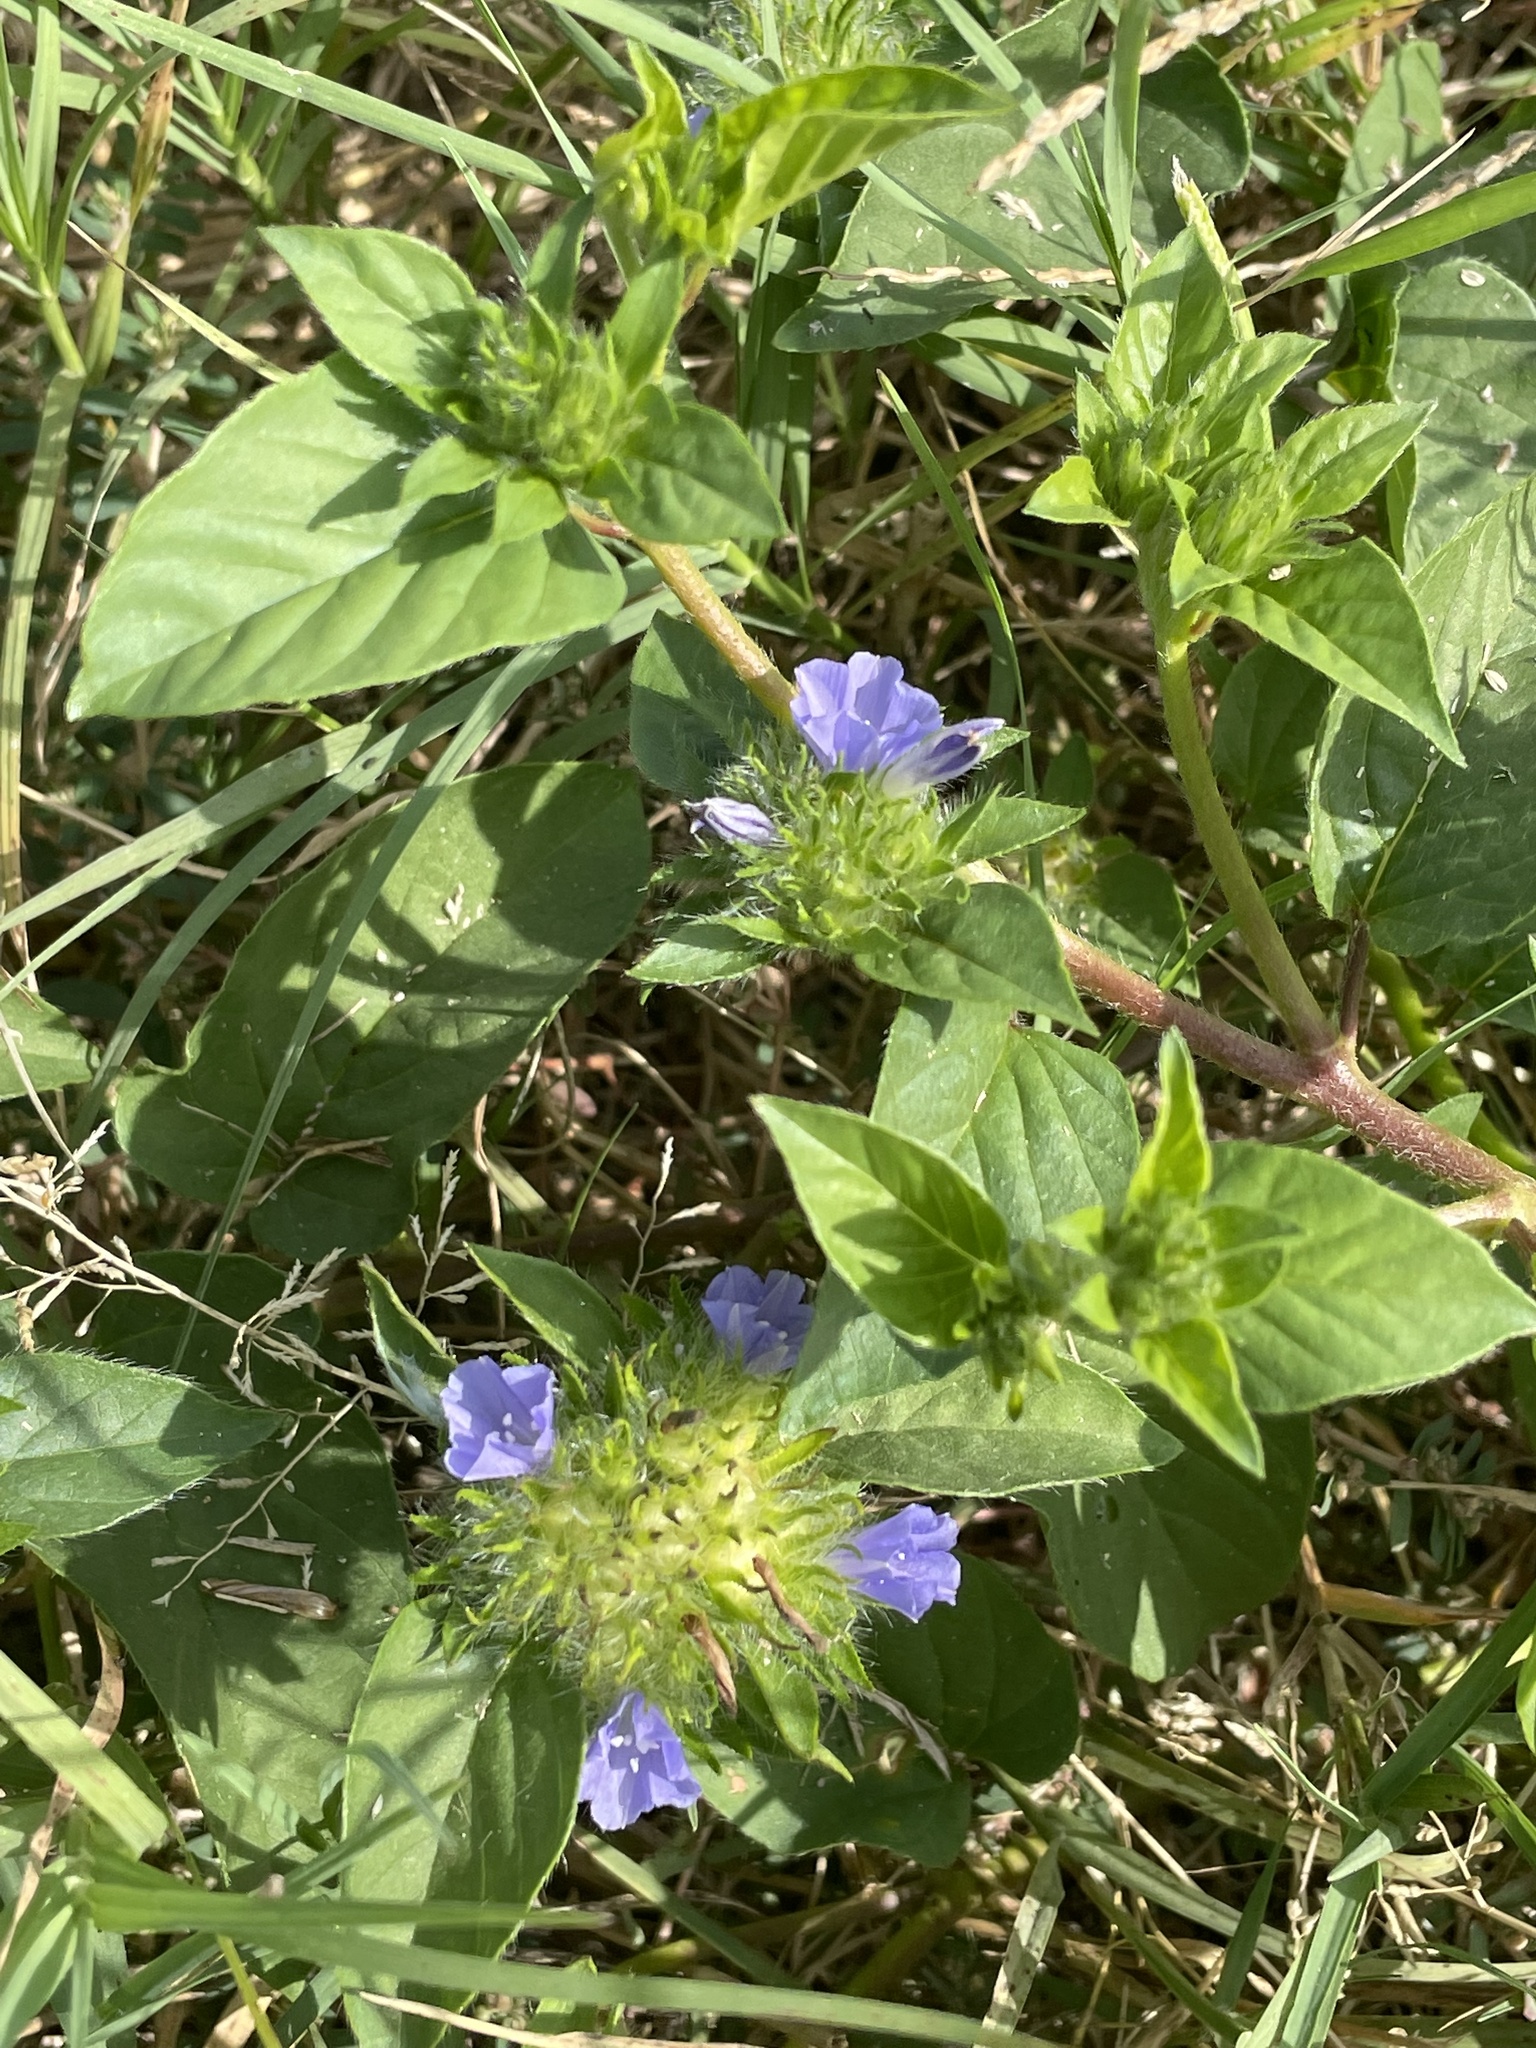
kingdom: Animalia
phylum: Arthropoda
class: Insecta
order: Lepidoptera
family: Pieridae
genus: Abaeis
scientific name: Abaeis nicippe
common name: Sleepy orange
